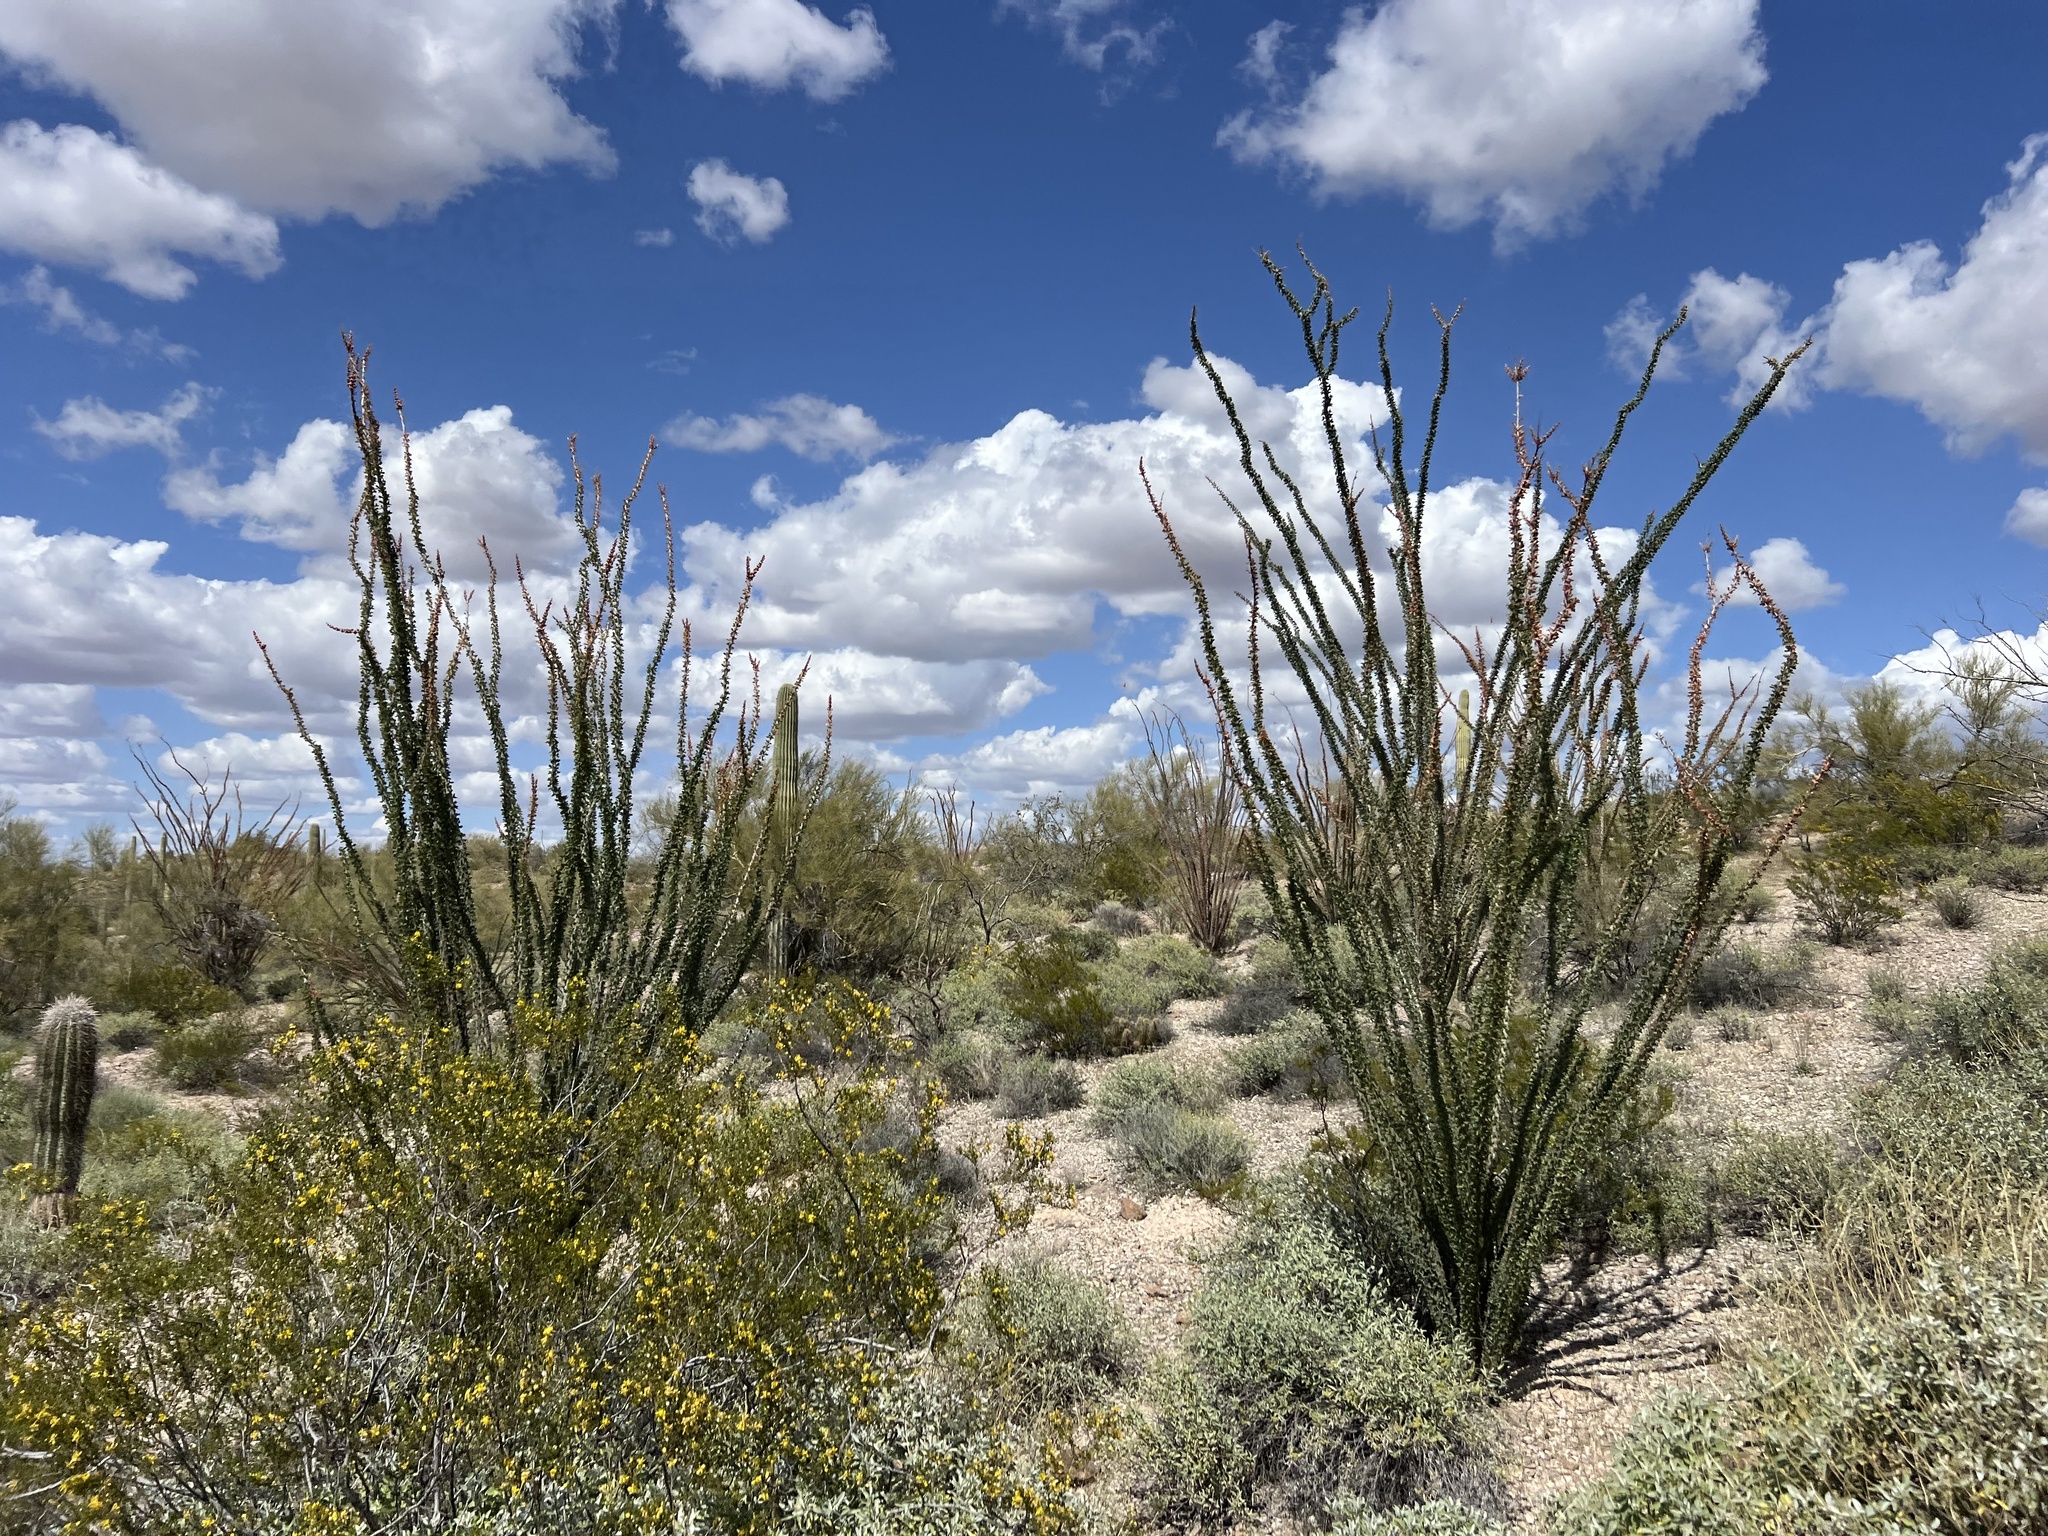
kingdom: Plantae
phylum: Tracheophyta
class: Magnoliopsida
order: Ericales
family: Fouquieriaceae
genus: Fouquieria
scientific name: Fouquieria splendens
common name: Vine-cactus
